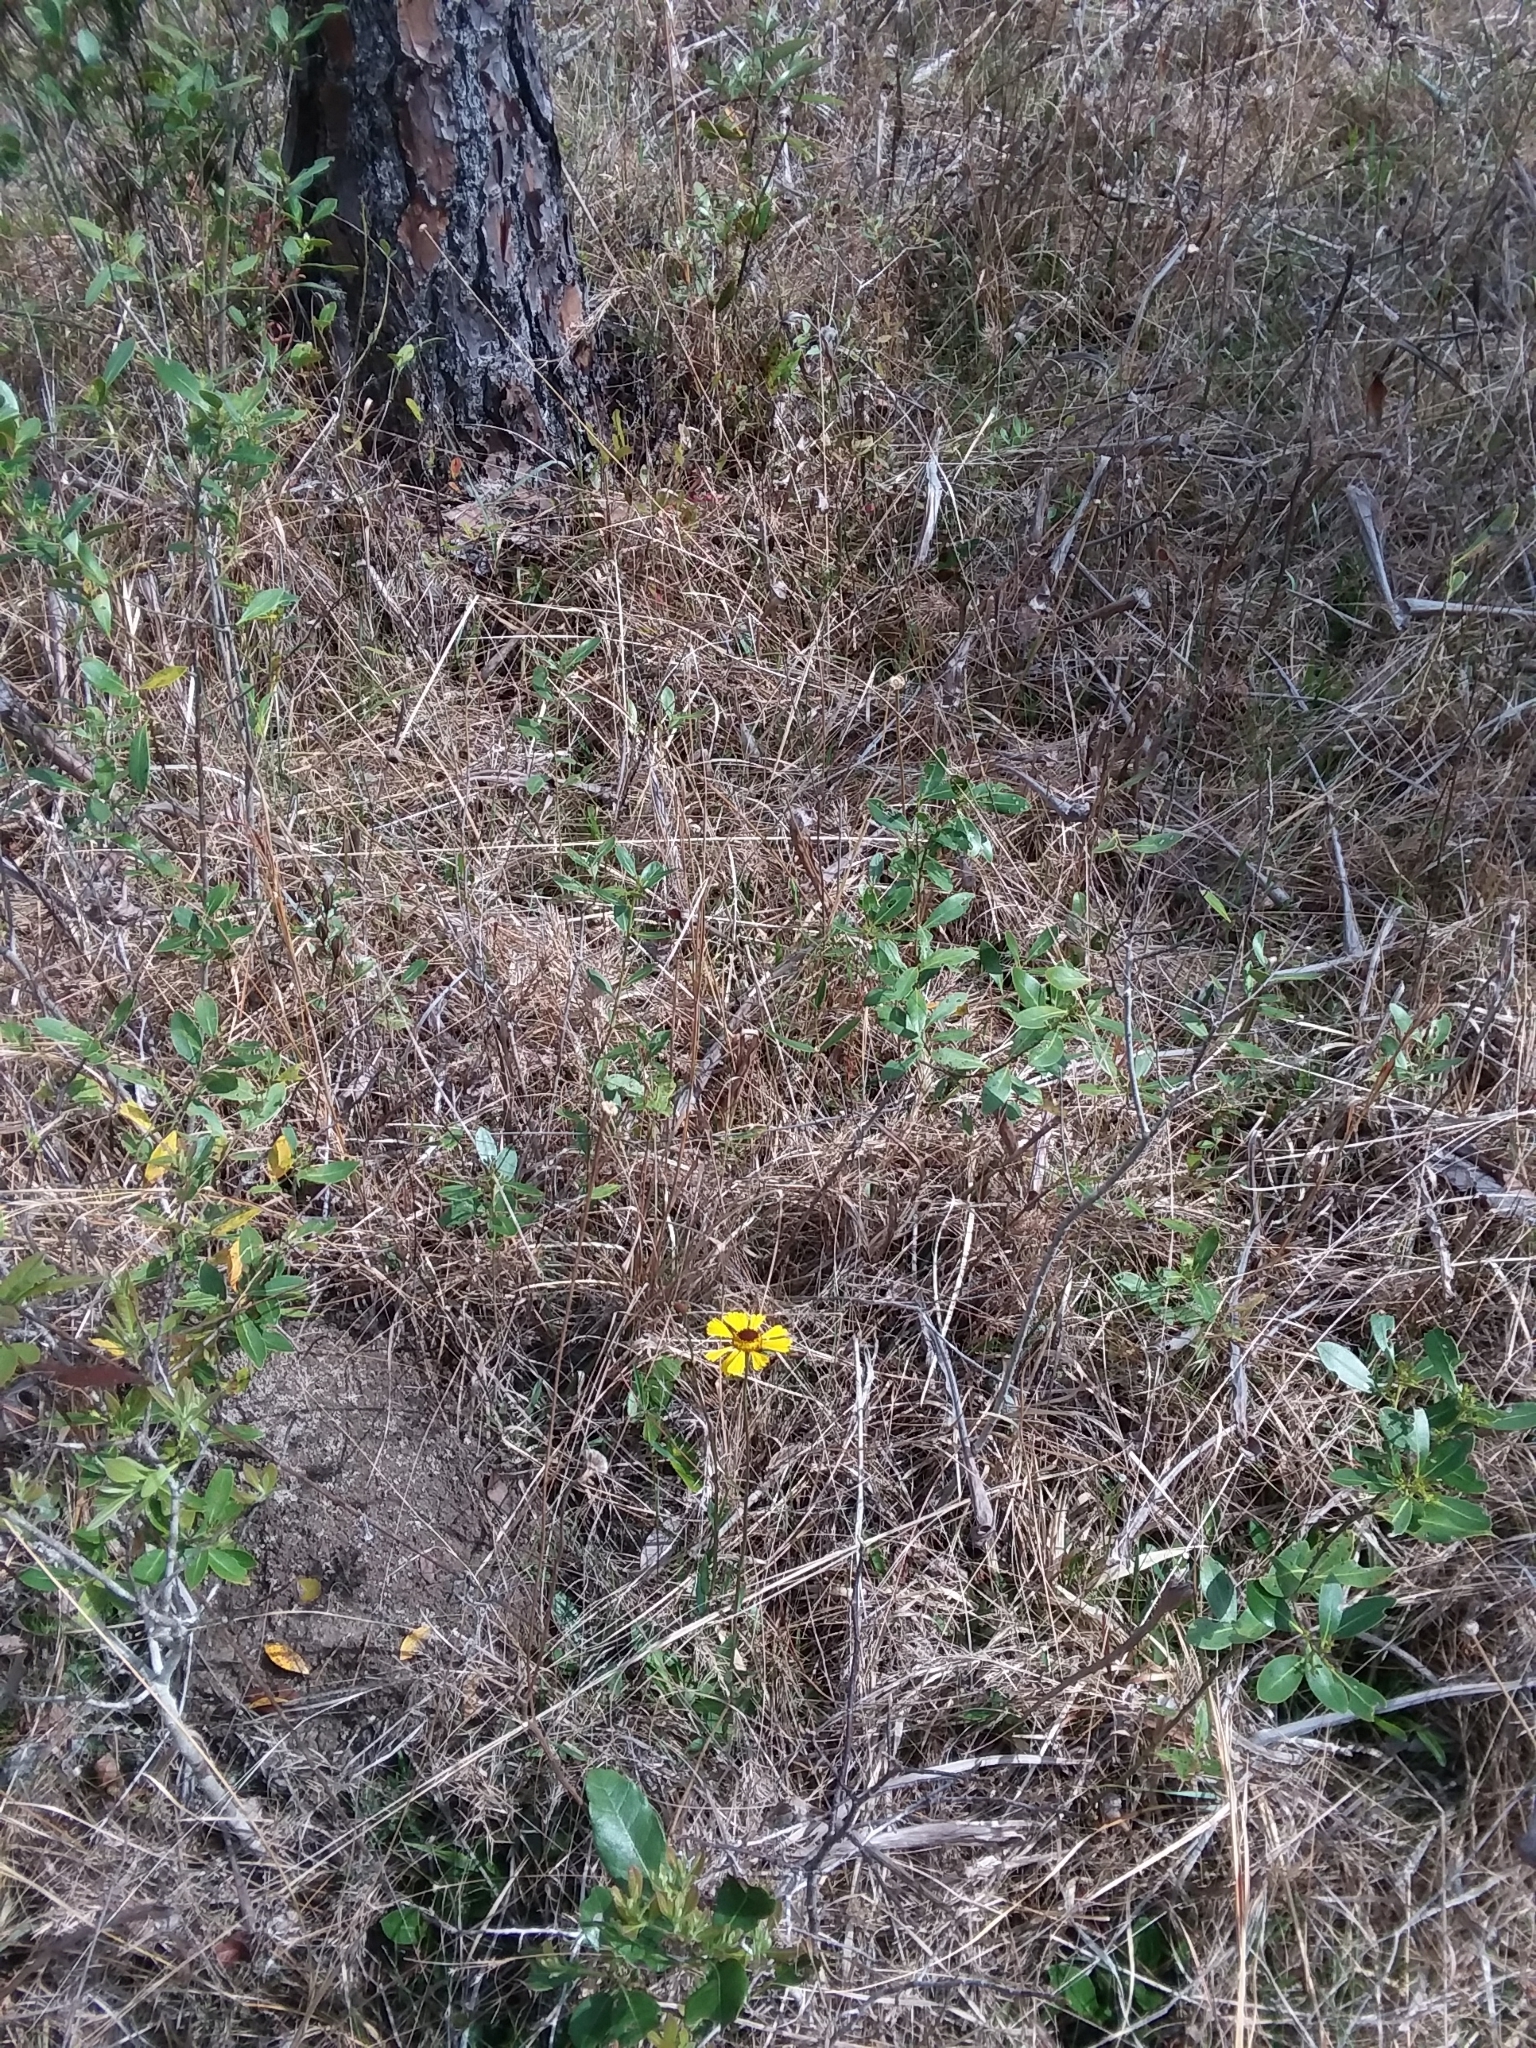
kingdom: Plantae
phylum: Tracheophyta
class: Magnoliopsida
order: Asterales
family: Asteraceae
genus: Helenium
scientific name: Helenium brevifolium
